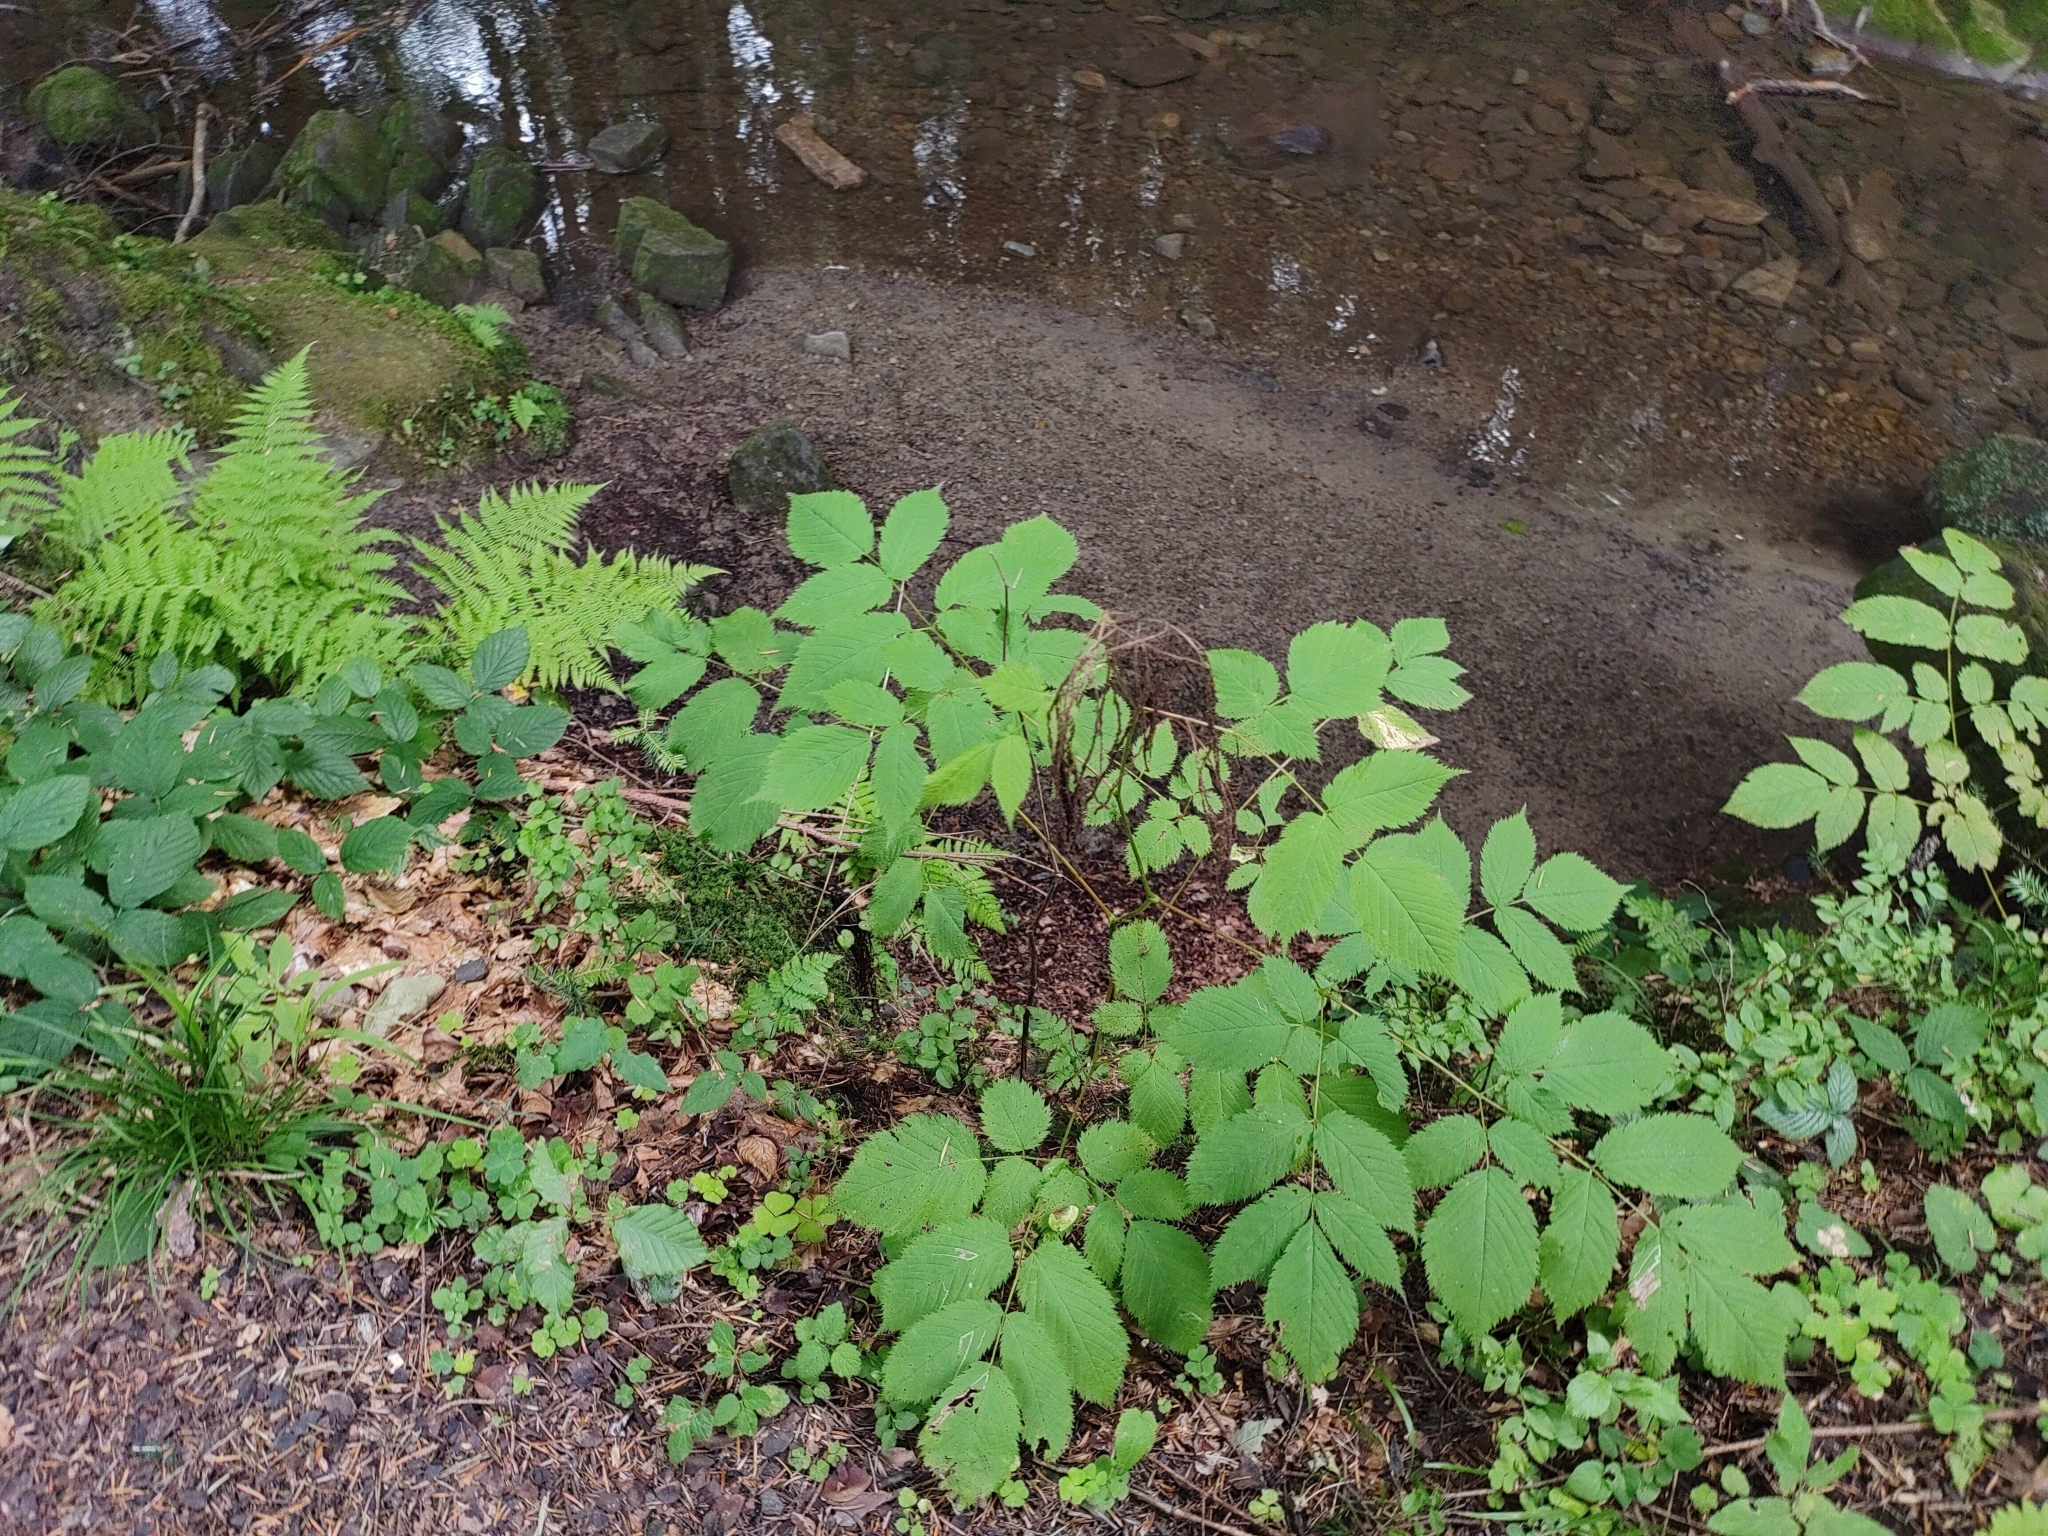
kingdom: Plantae
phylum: Tracheophyta
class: Magnoliopsida
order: Rosales
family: Rosaceae
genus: Aruncus
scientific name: Aruncus dioicus
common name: Buck's-beard
